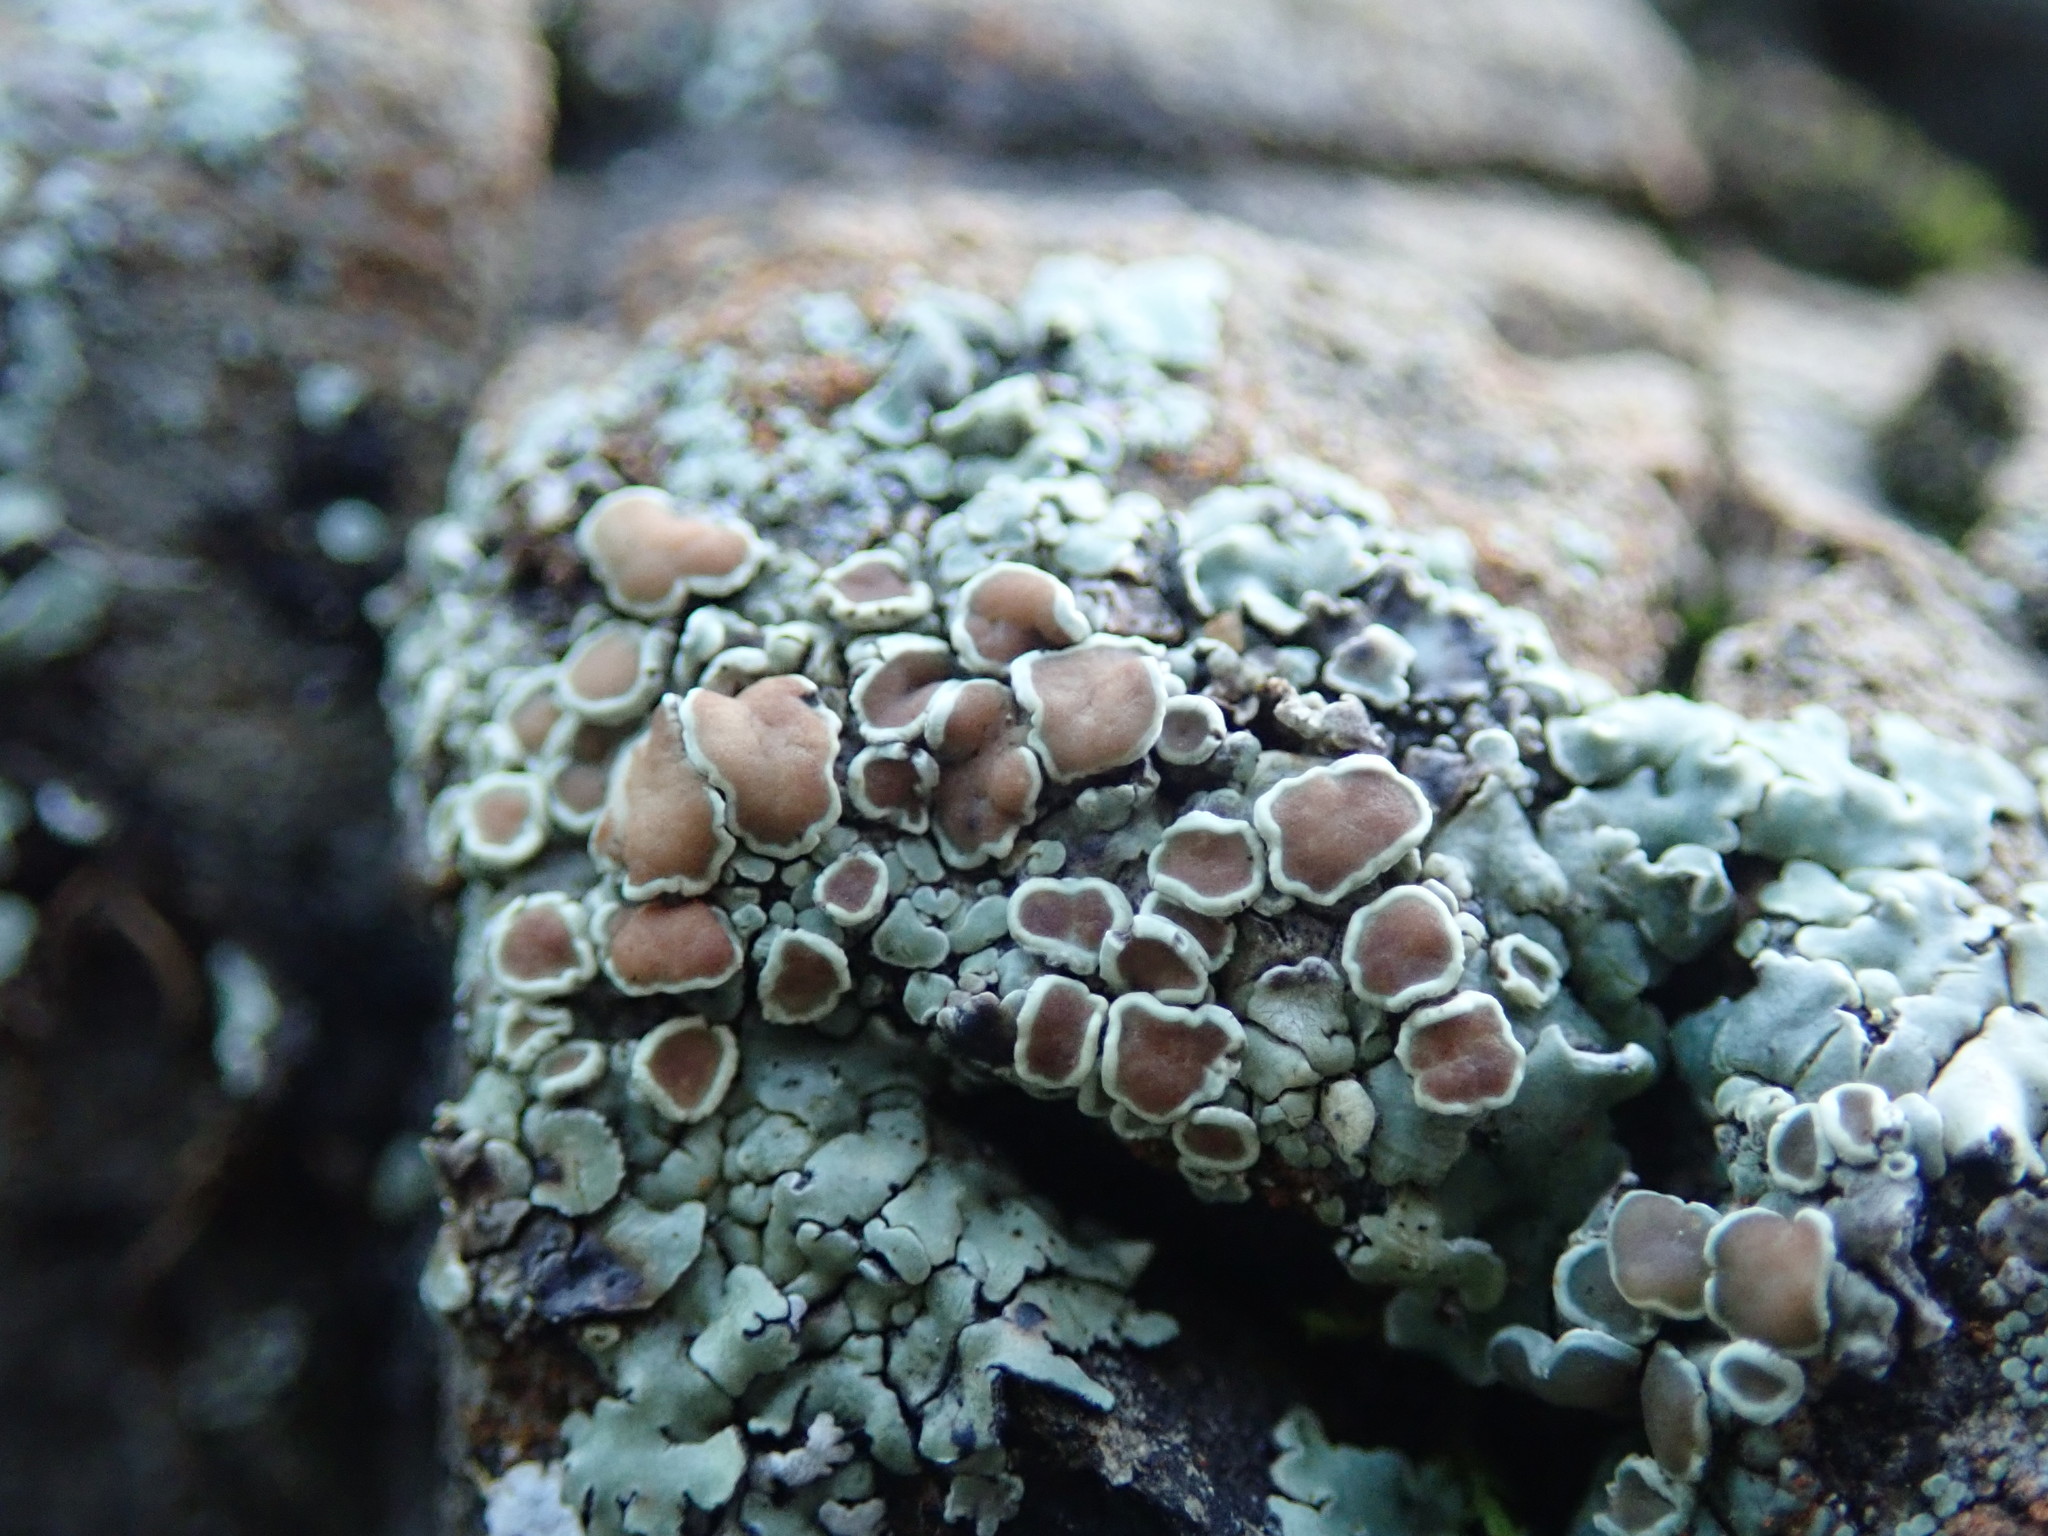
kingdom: Fungi
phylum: Ascomycota
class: Lecanoromycetes
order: Lecanorales
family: Lecanoraceae
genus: Protoparmeliopsis
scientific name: Protoparmeliopsis muralis
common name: Stonewall rim lichen
